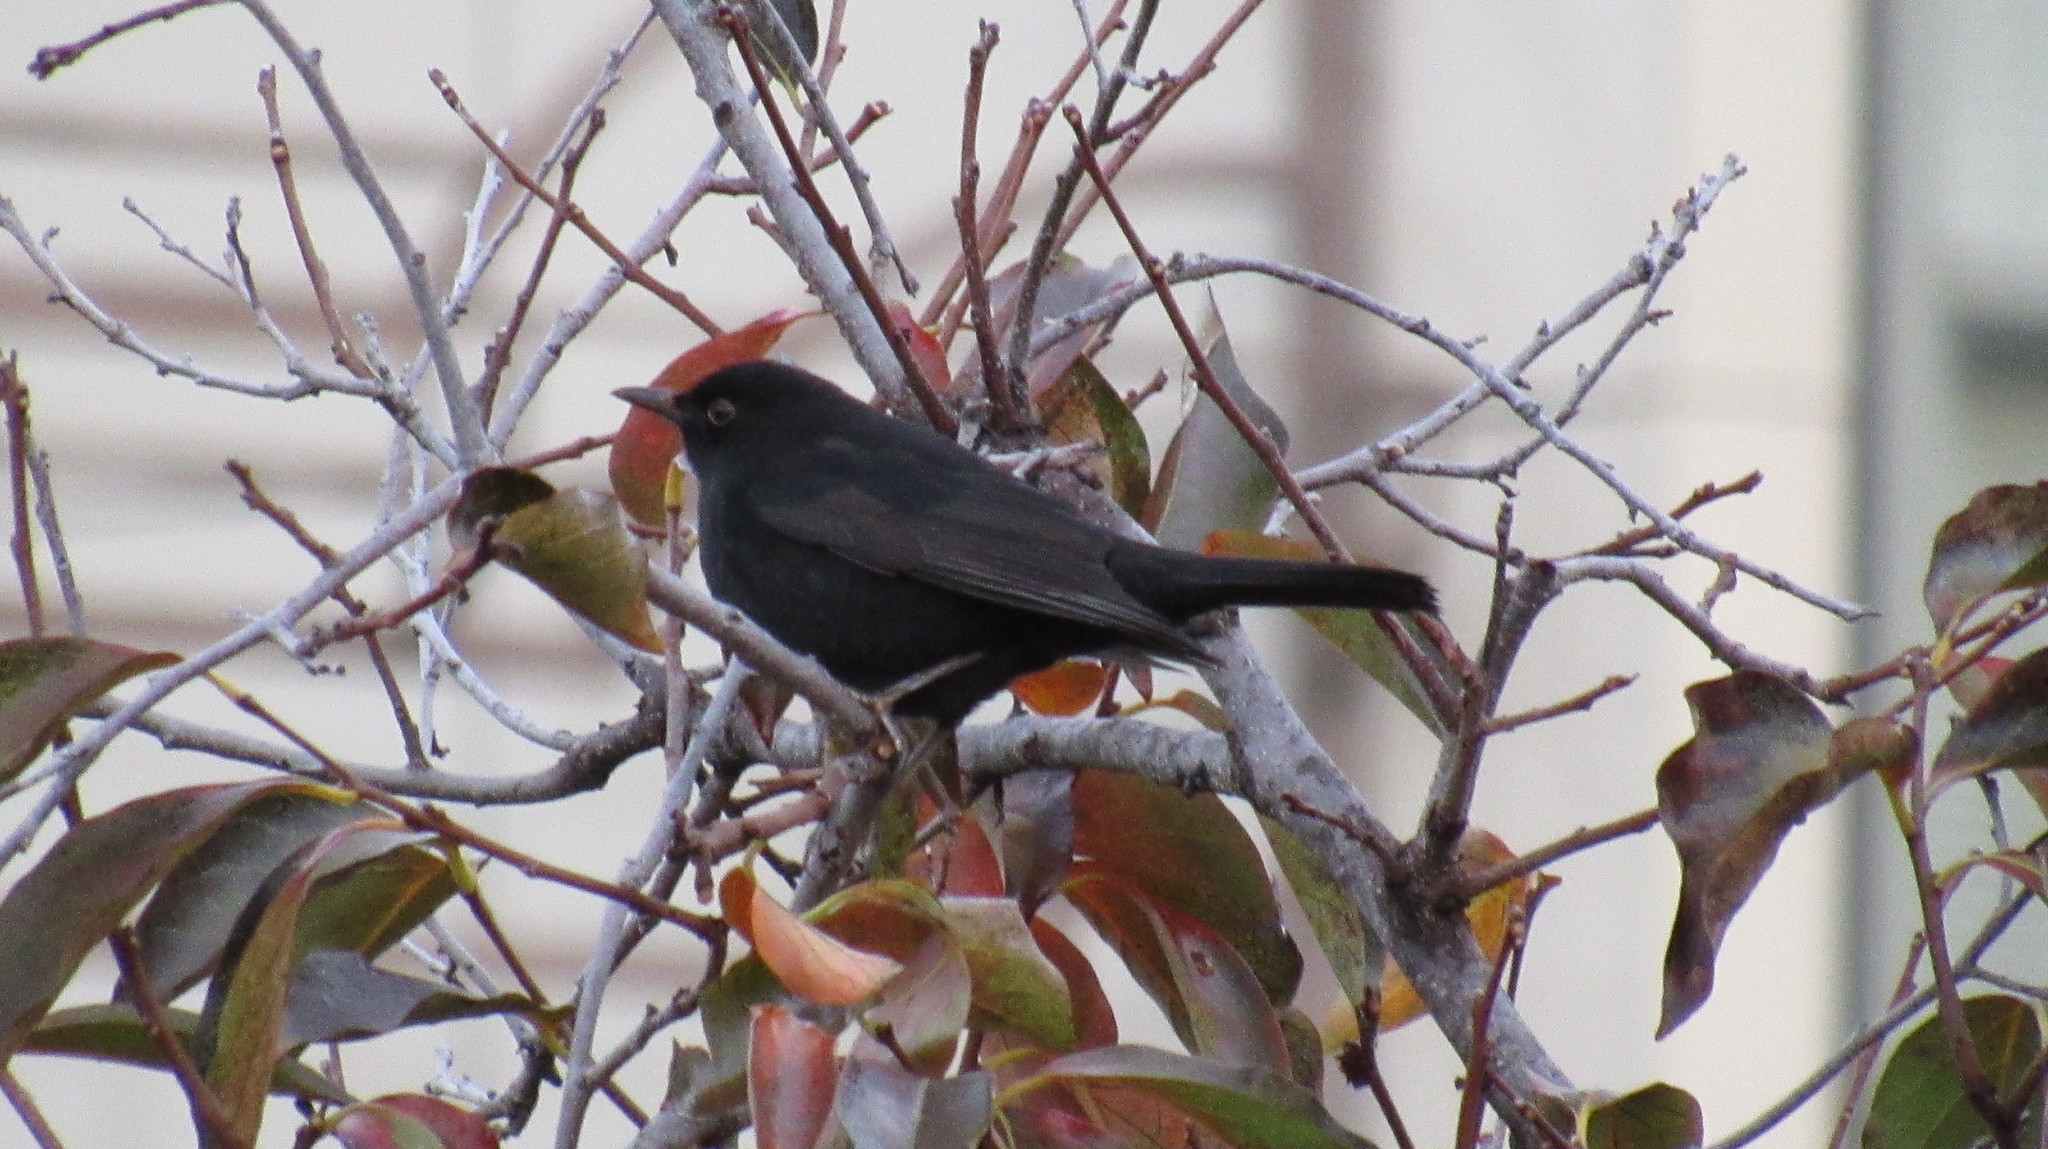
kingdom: Animalia
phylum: Chordata
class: Aves
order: Passeriformes
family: Turdidae
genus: Turdus
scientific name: Turdus merula
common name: Common blackbird
